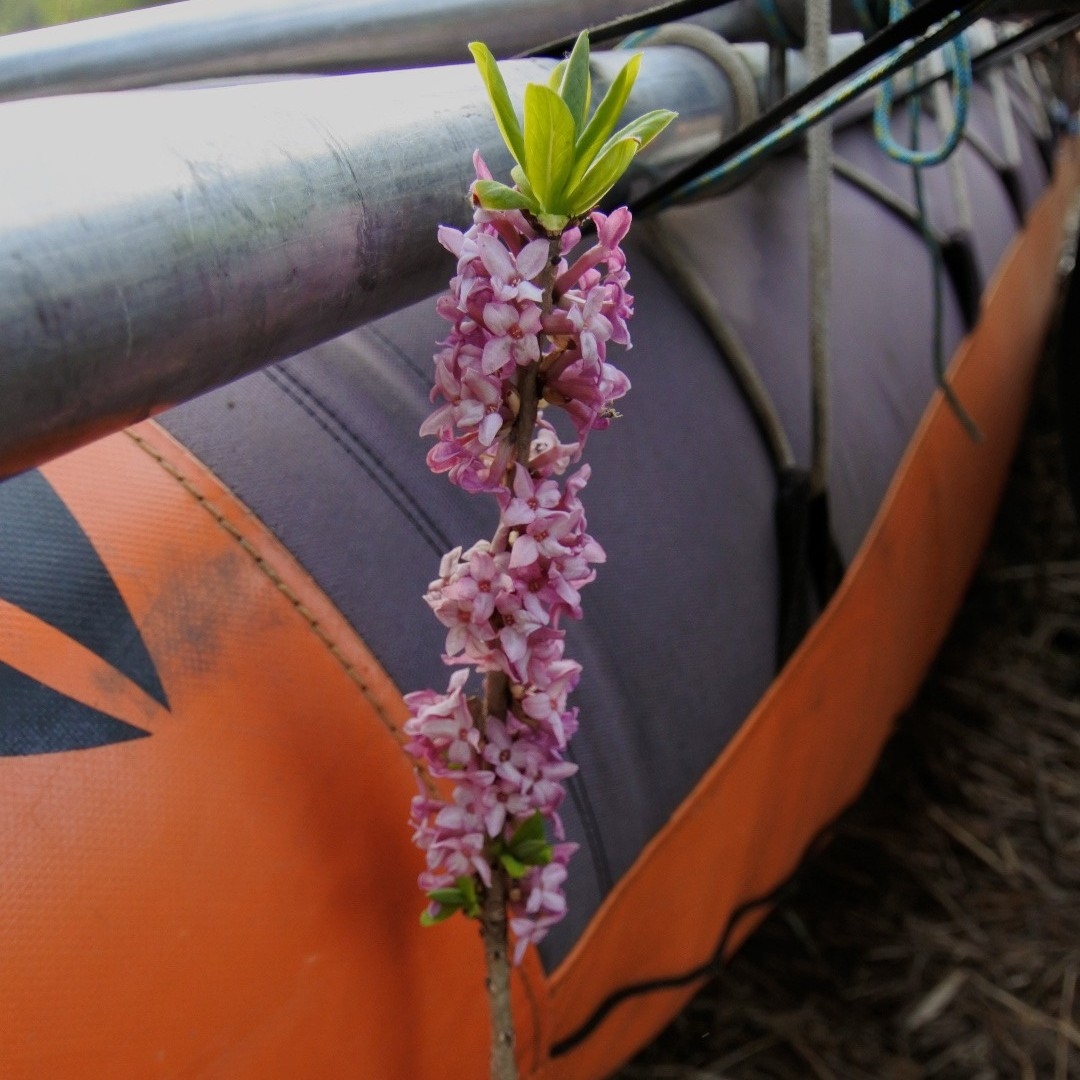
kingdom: Plantae
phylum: Tracheophyta
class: Magnoliopsida
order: Malvales
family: Thymelaeaceae
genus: Daphne
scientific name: Daphne mezereum
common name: Mezereon
